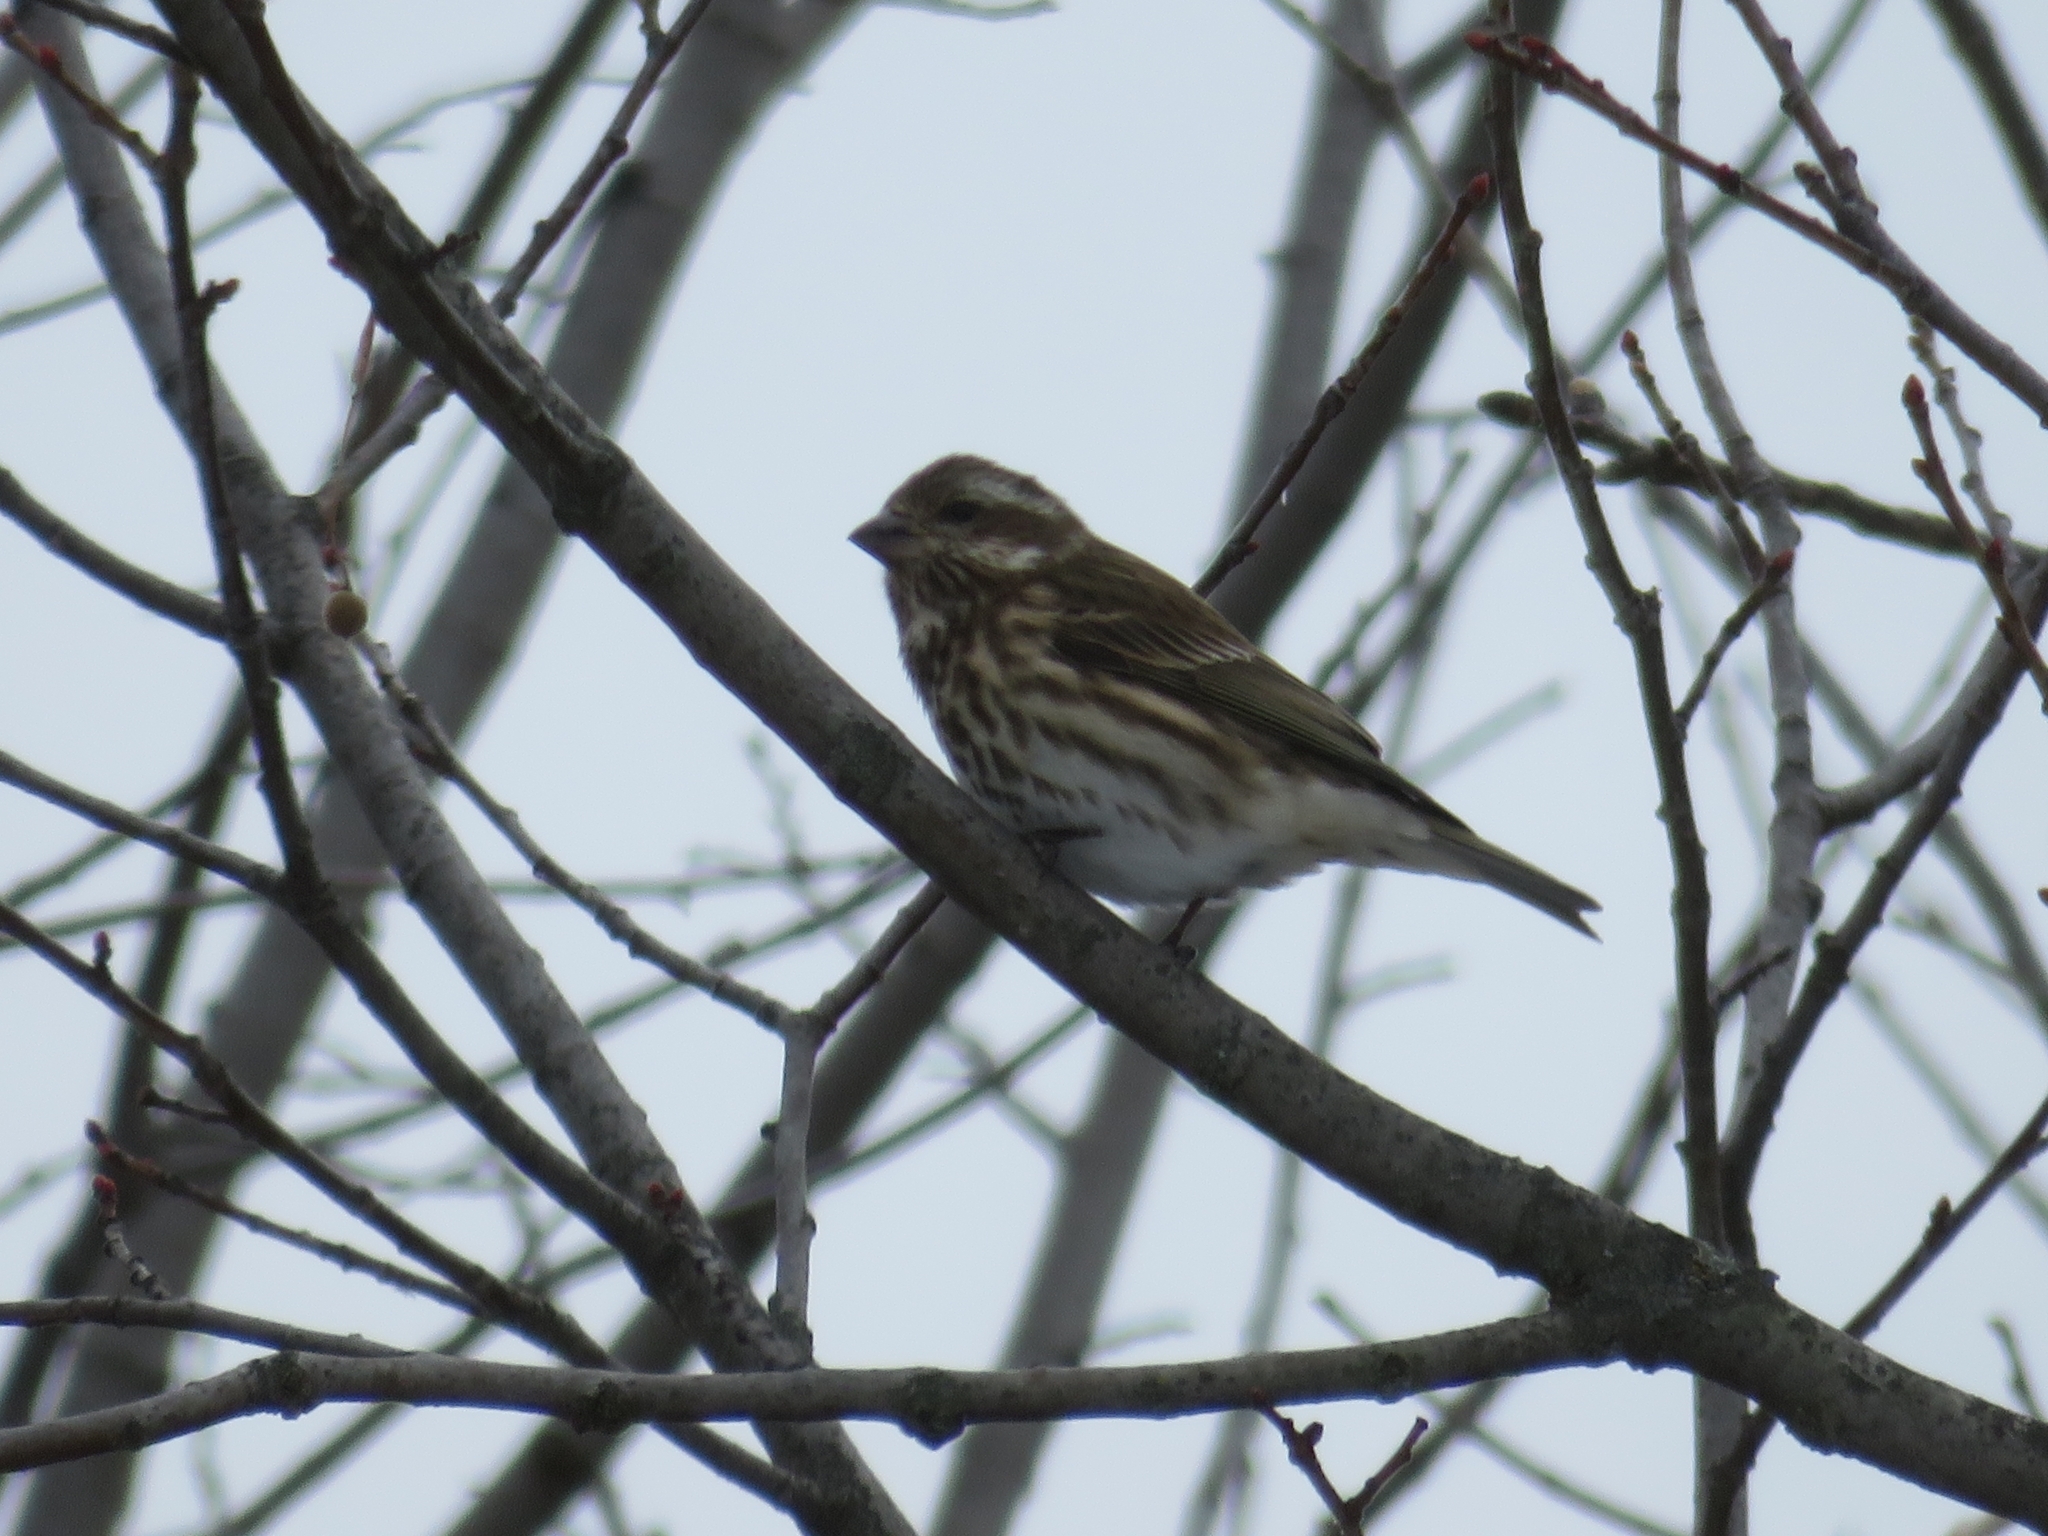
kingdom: Animalia
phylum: Chordata
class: Aves
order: Passeriformes
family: Fringillidae
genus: Haemorhous
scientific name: Haemorhous purpureus
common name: Purple finch
